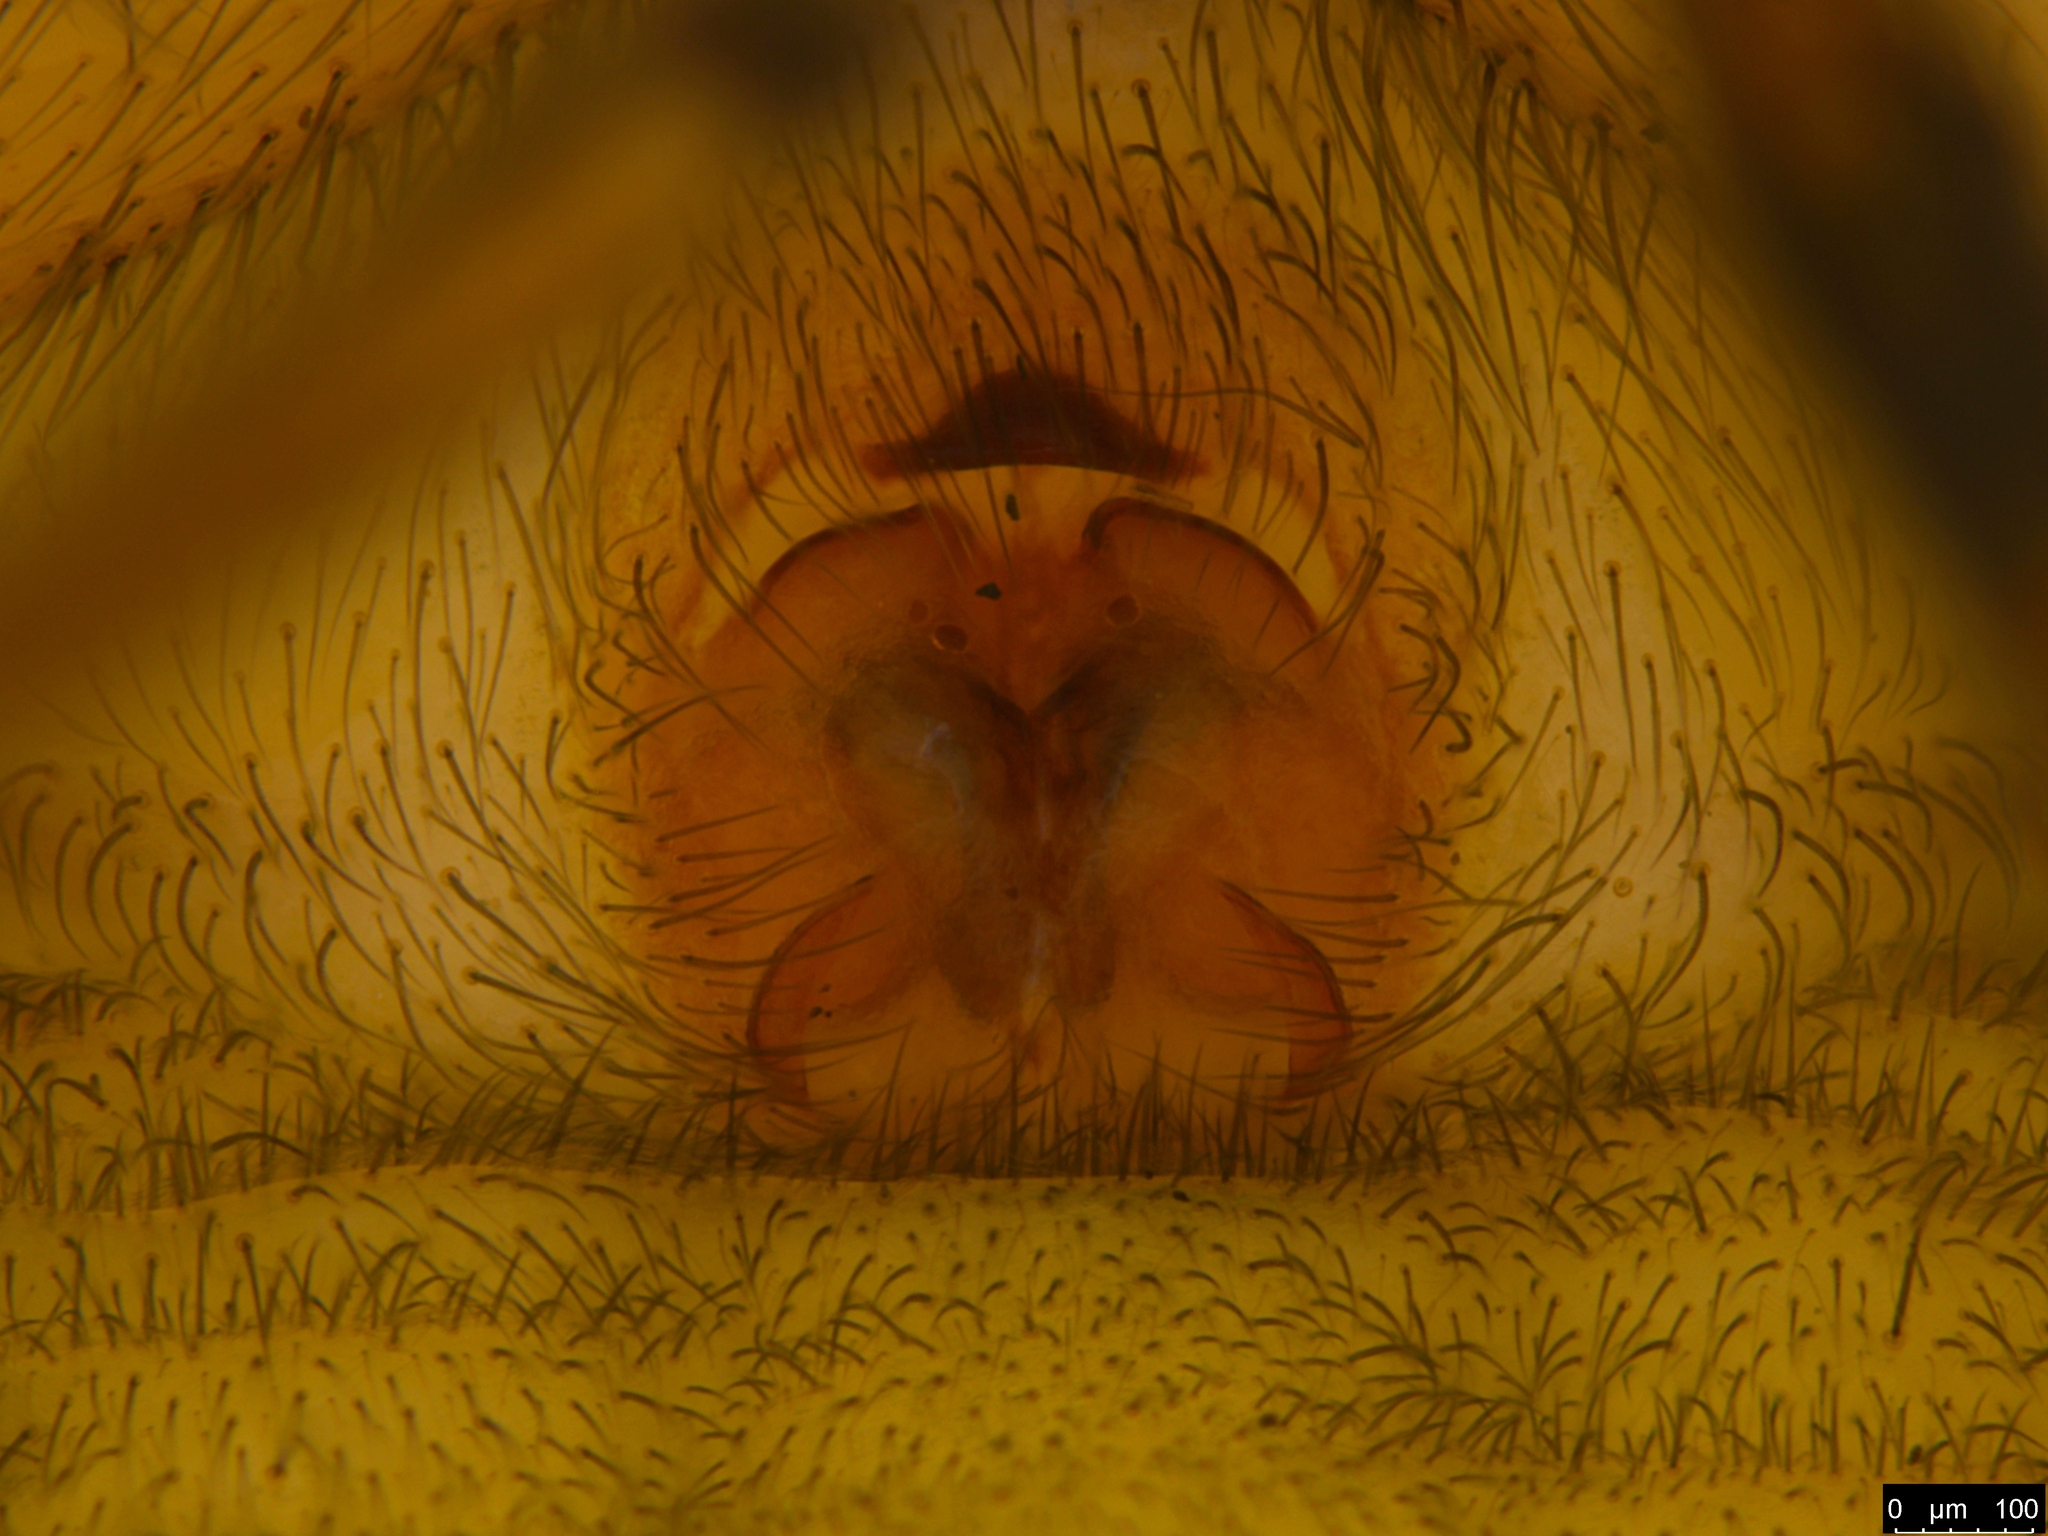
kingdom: Animalia
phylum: Arthropoda
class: Arachnida
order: Araneae
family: Gnaphosidae
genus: Intruda
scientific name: Intruda signata
